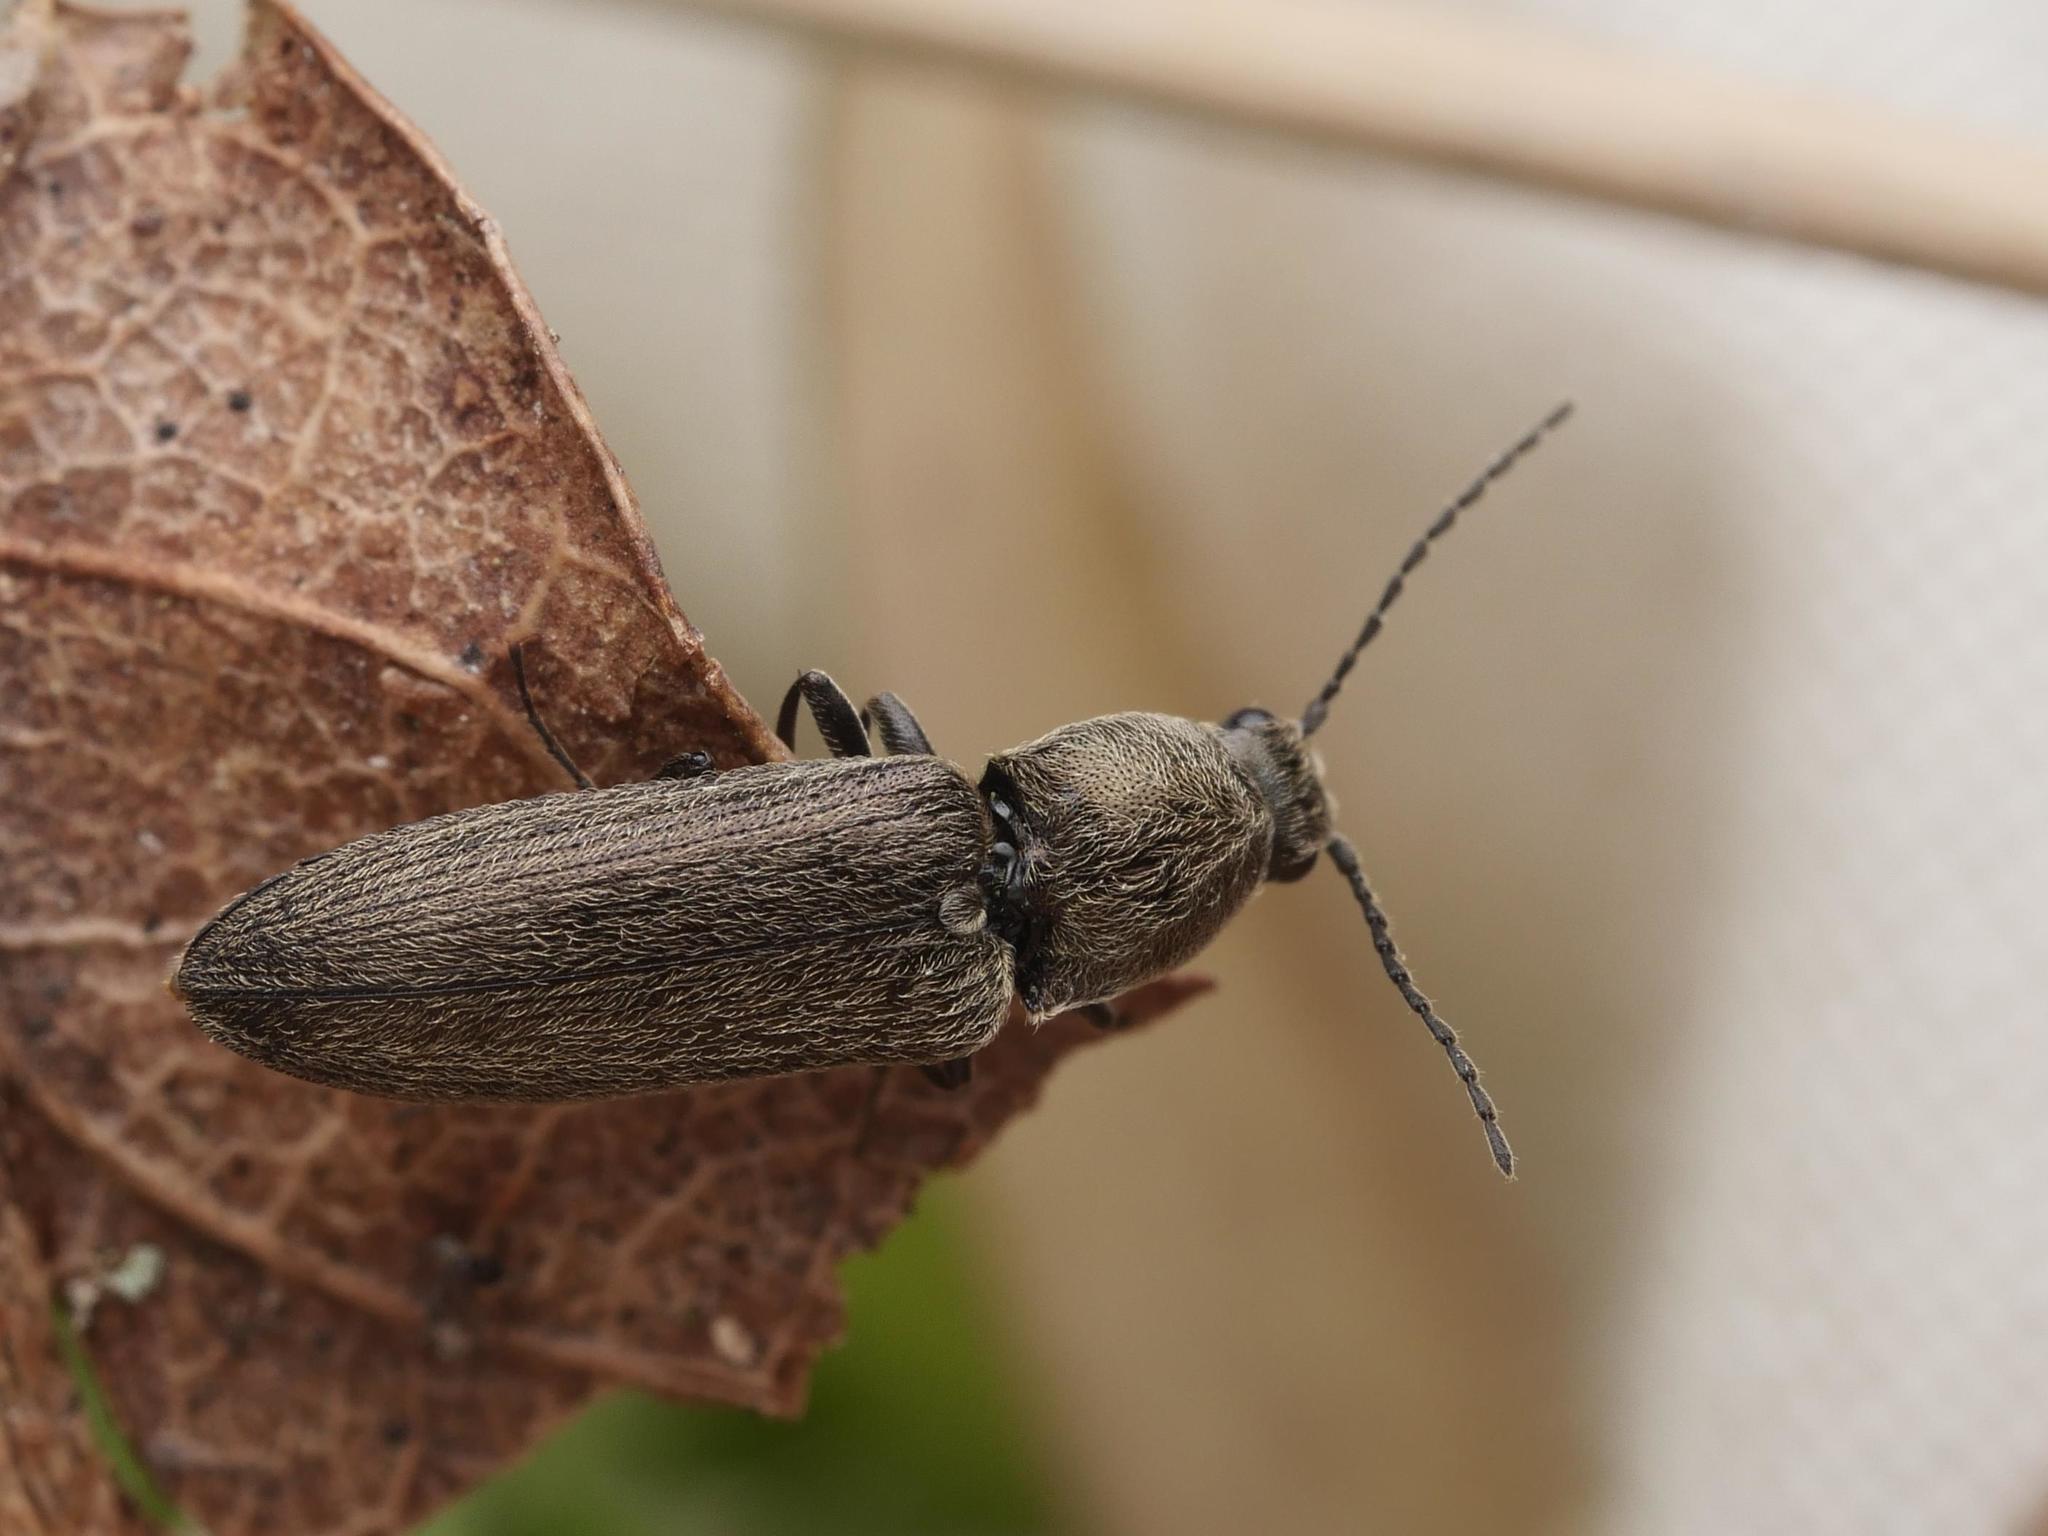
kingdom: Animalia
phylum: Arthropoda
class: Insecta
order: Coleoptera
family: Elateridae
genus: Cidnopus
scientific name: Cidnopus aeruginosus
